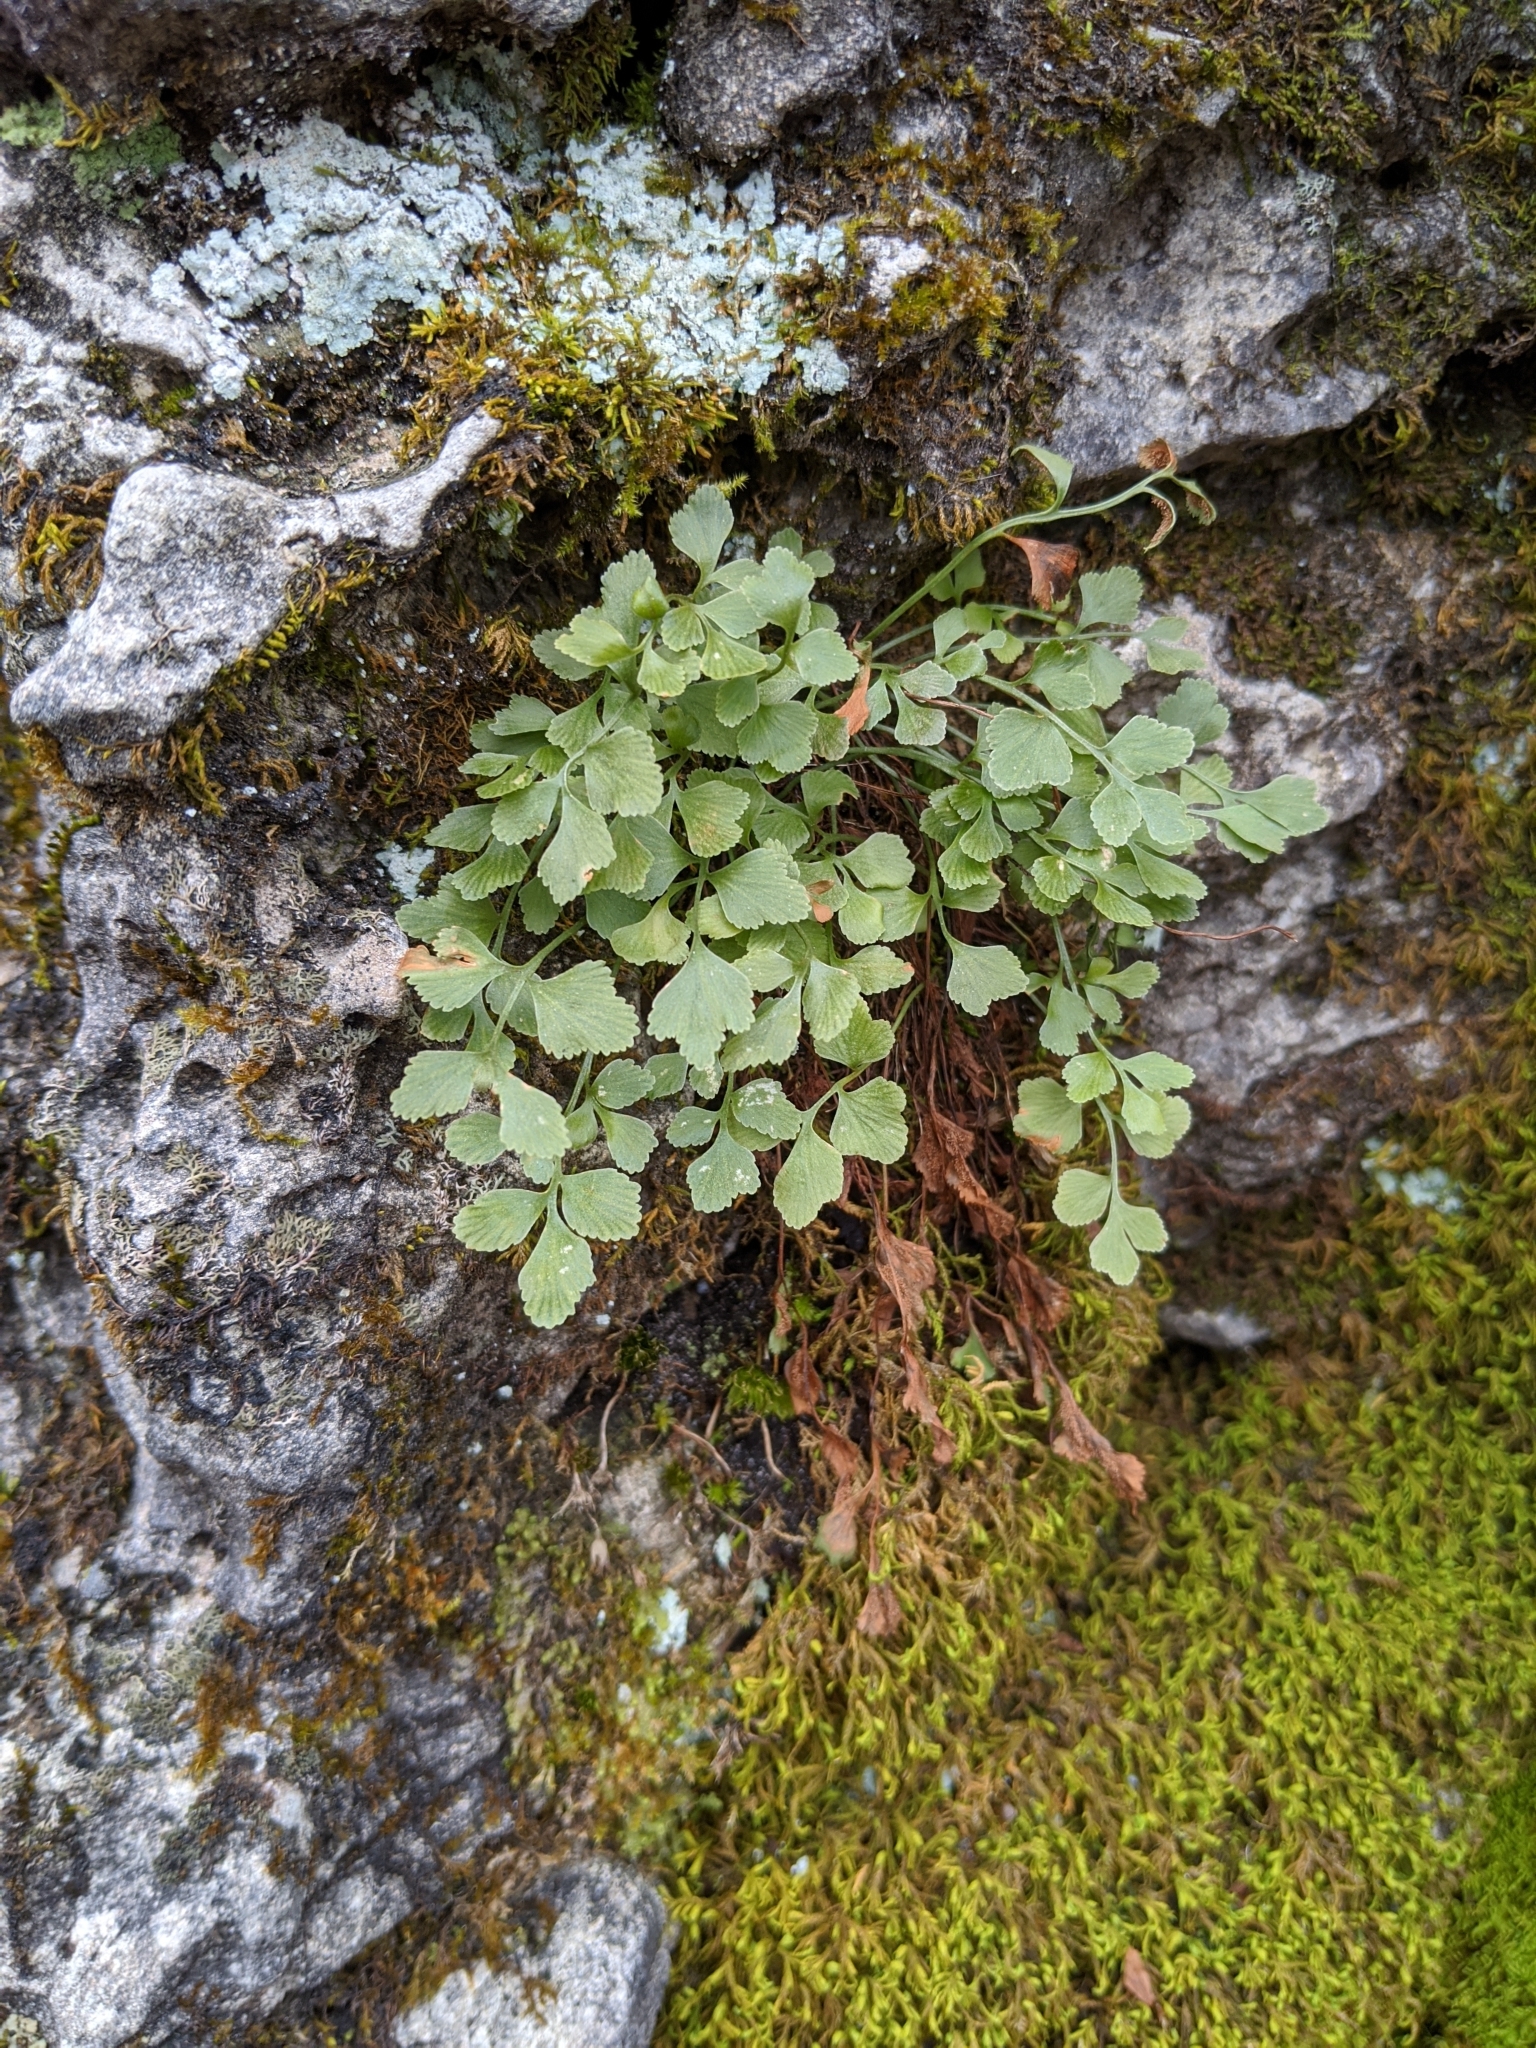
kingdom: Plantae
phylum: Tracheophyta
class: Polypodiopsida
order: Polypodiales
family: Aspleniaceae
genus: Asplenium
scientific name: Asplenium ruta-muraria
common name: Wall-rue
